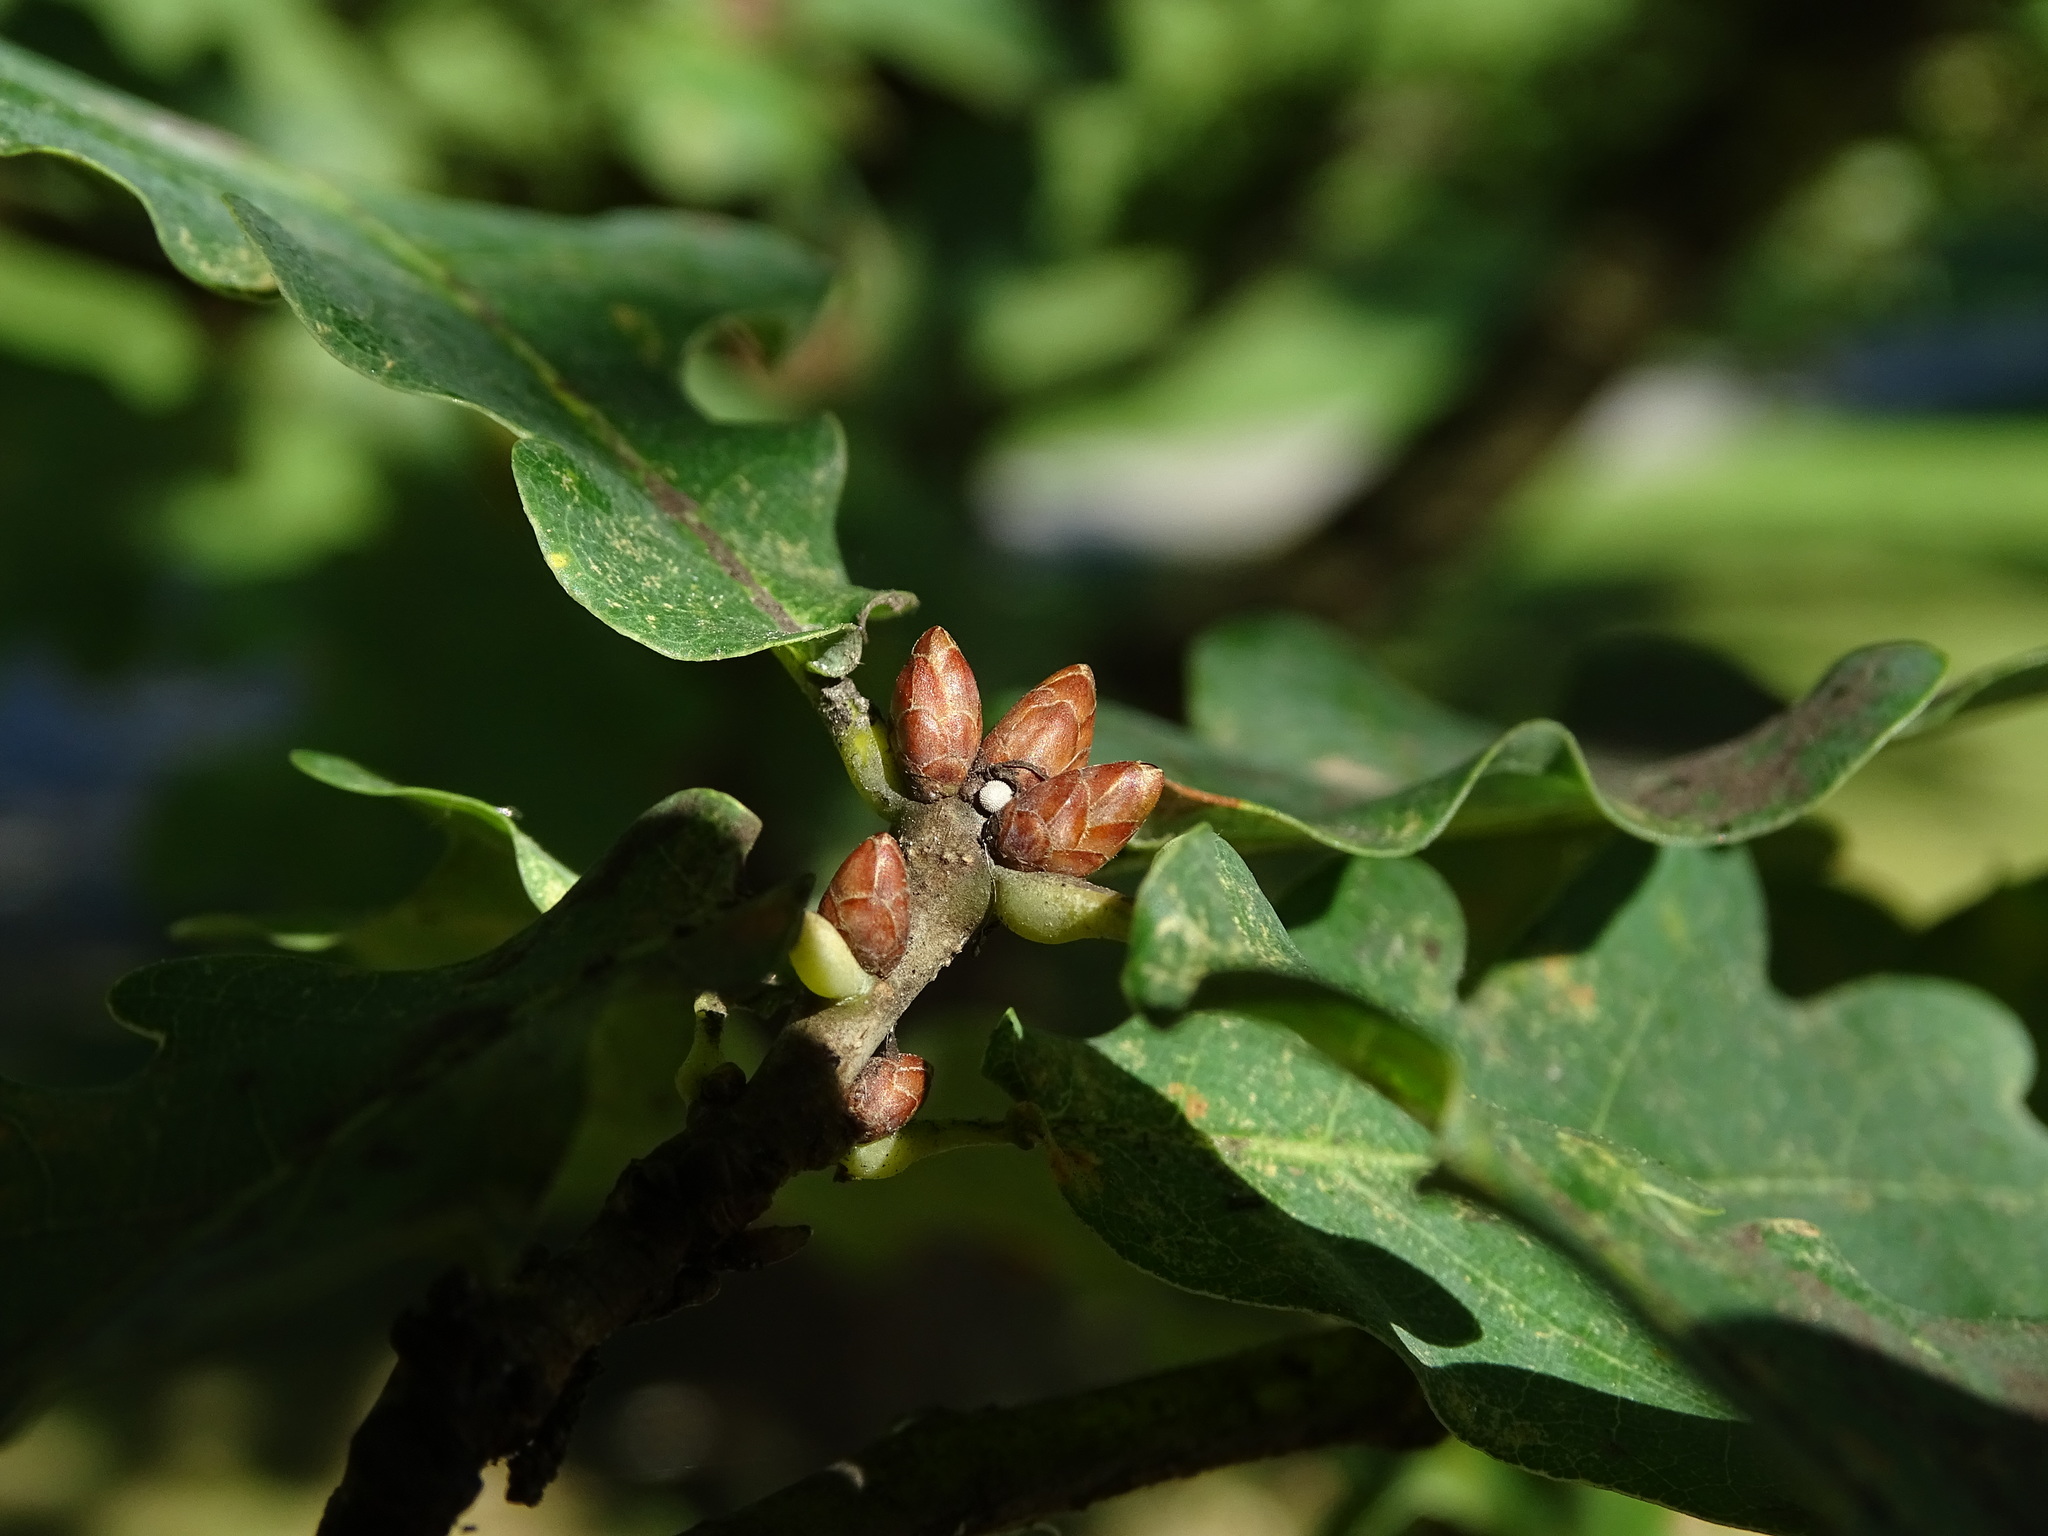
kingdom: Animalia
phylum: Arthropoda
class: Insecta
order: Lepidoptera
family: Lycaenidae
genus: Quercusia
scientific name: Quercusia quercus
